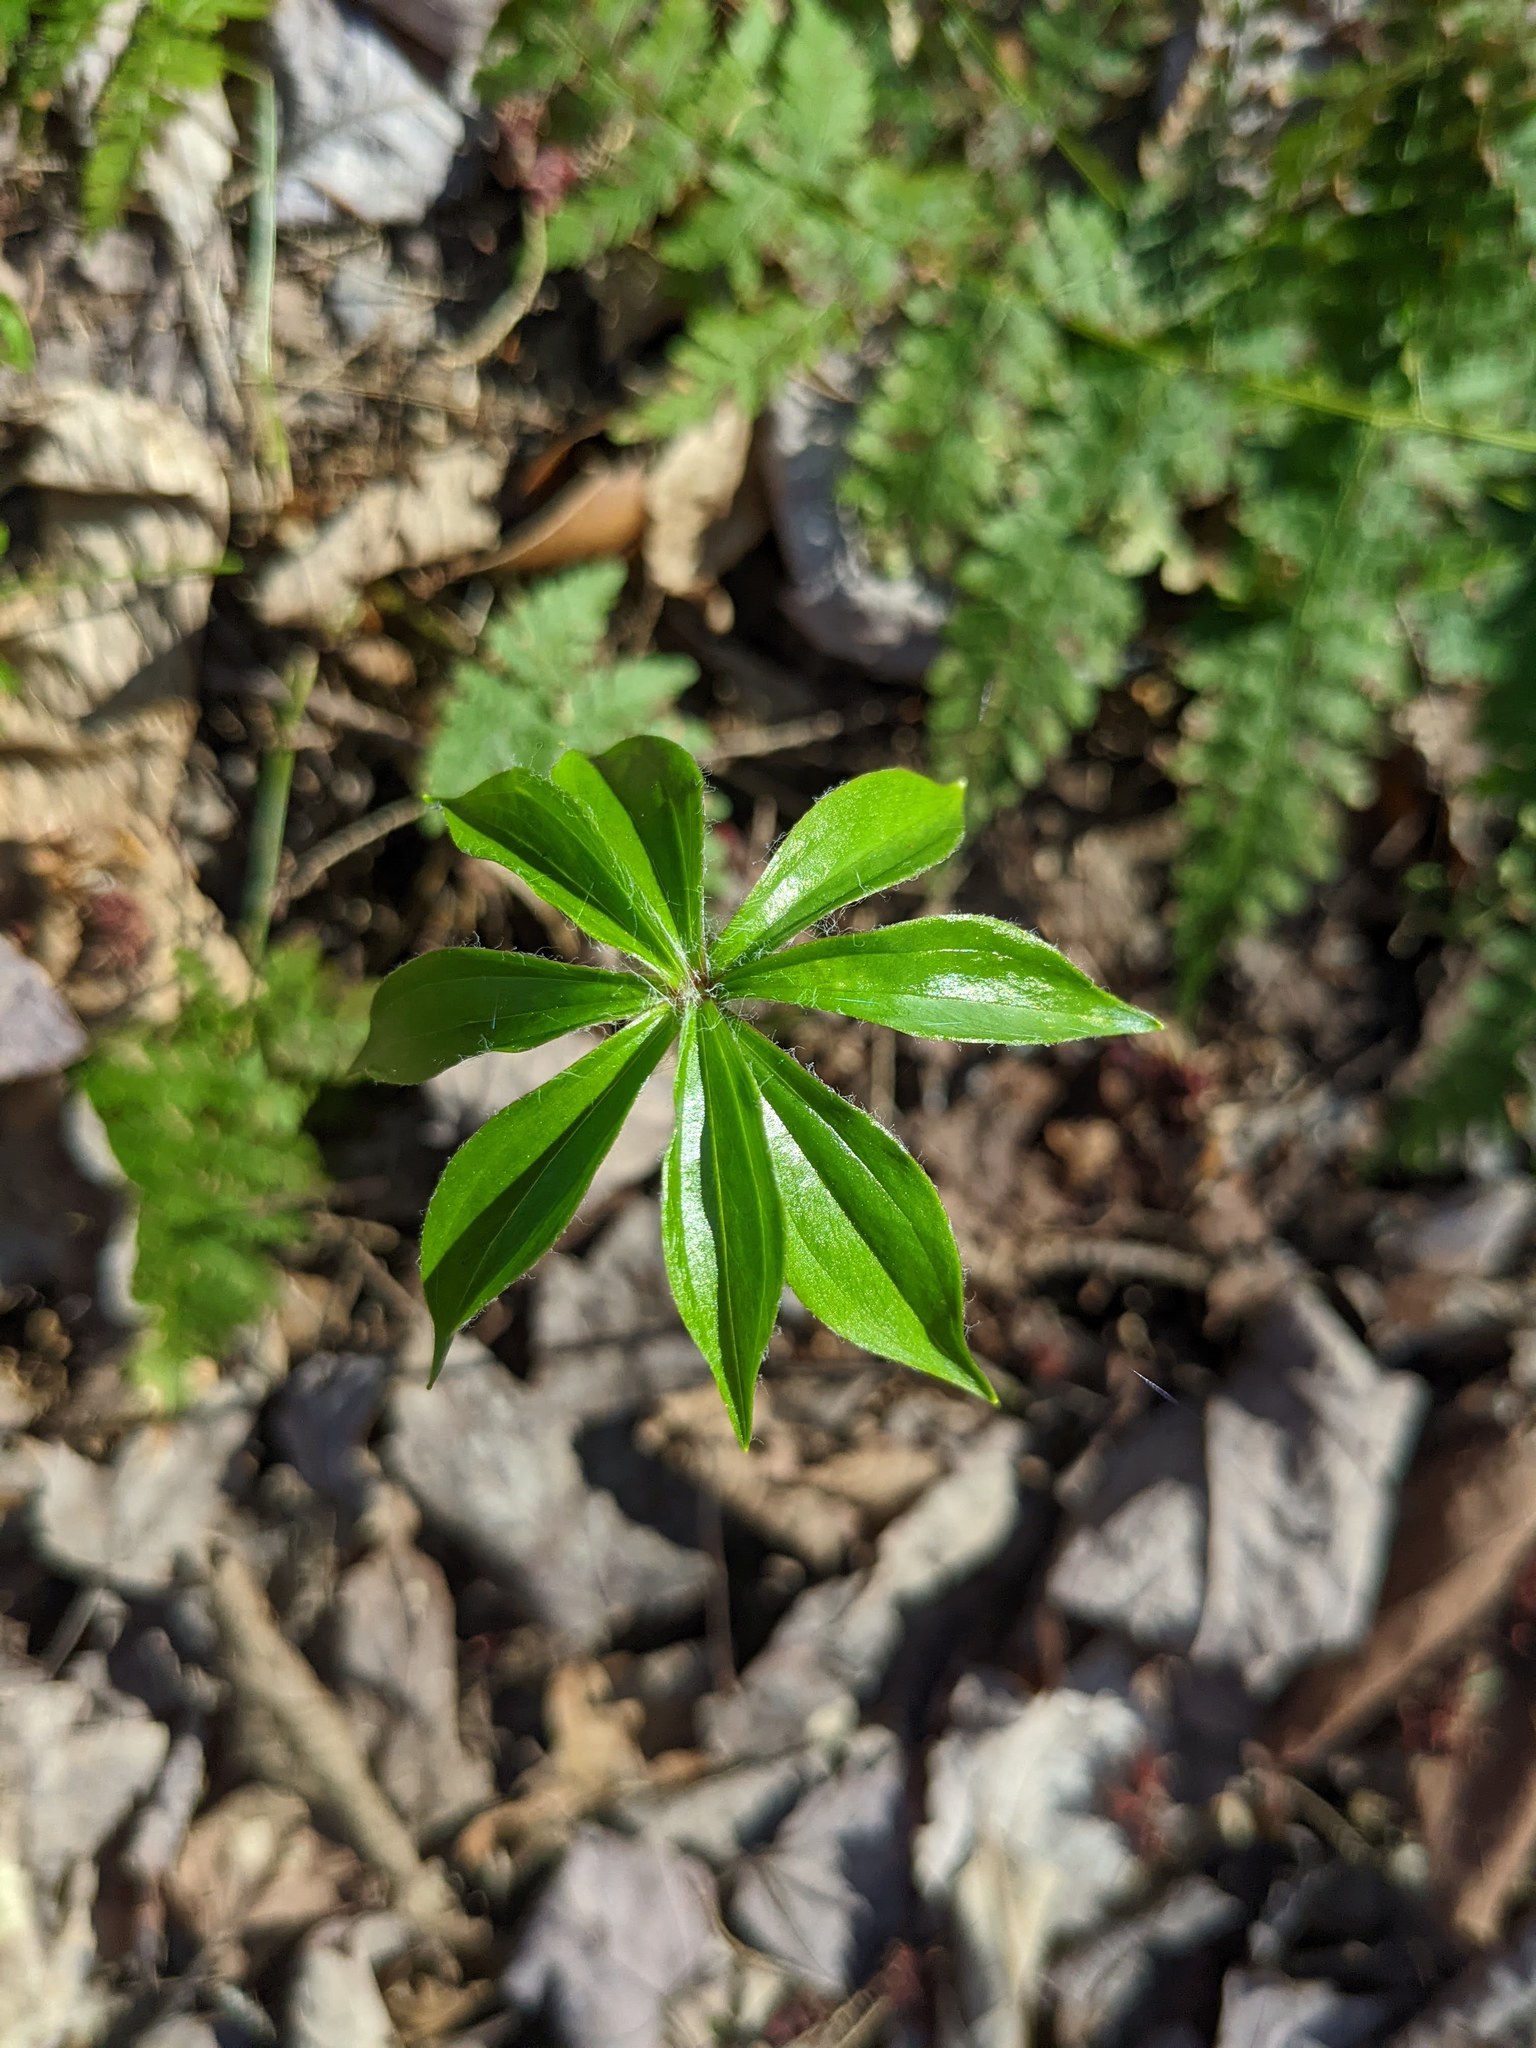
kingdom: Plantae
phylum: Tracheophyta
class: Liliopsida
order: Liliales
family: Liliaceae
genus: Medeola
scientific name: Medeola virginiana
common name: Indian cucumber-root
